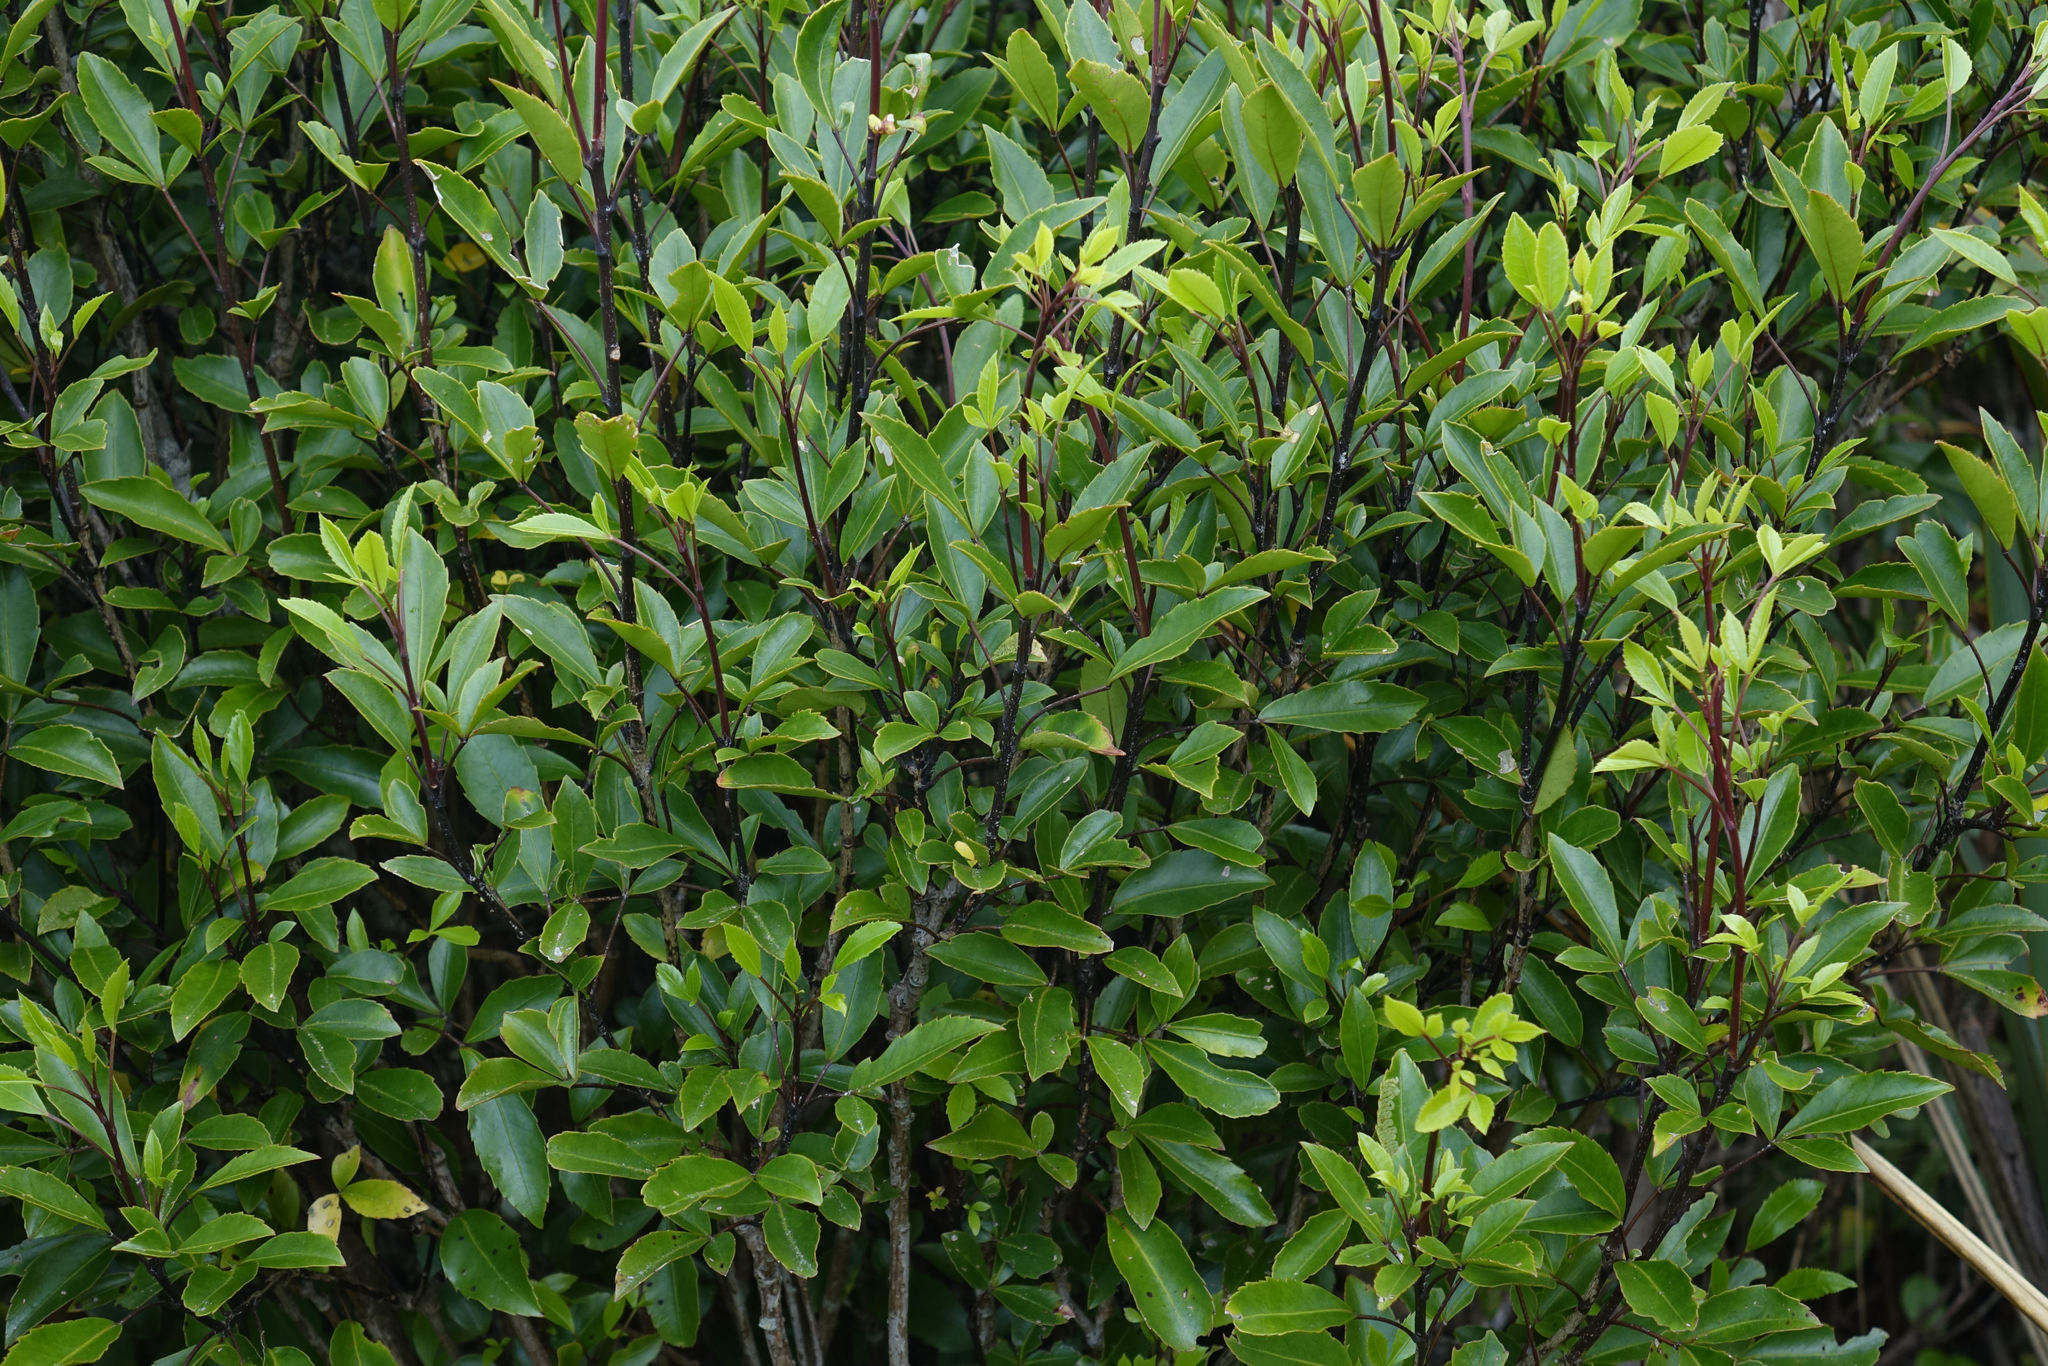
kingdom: Plantae
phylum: Tracheophyta
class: Magnoliopsida
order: Apiales
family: Araliaceae
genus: Raukaua
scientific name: Raukaua simplex
